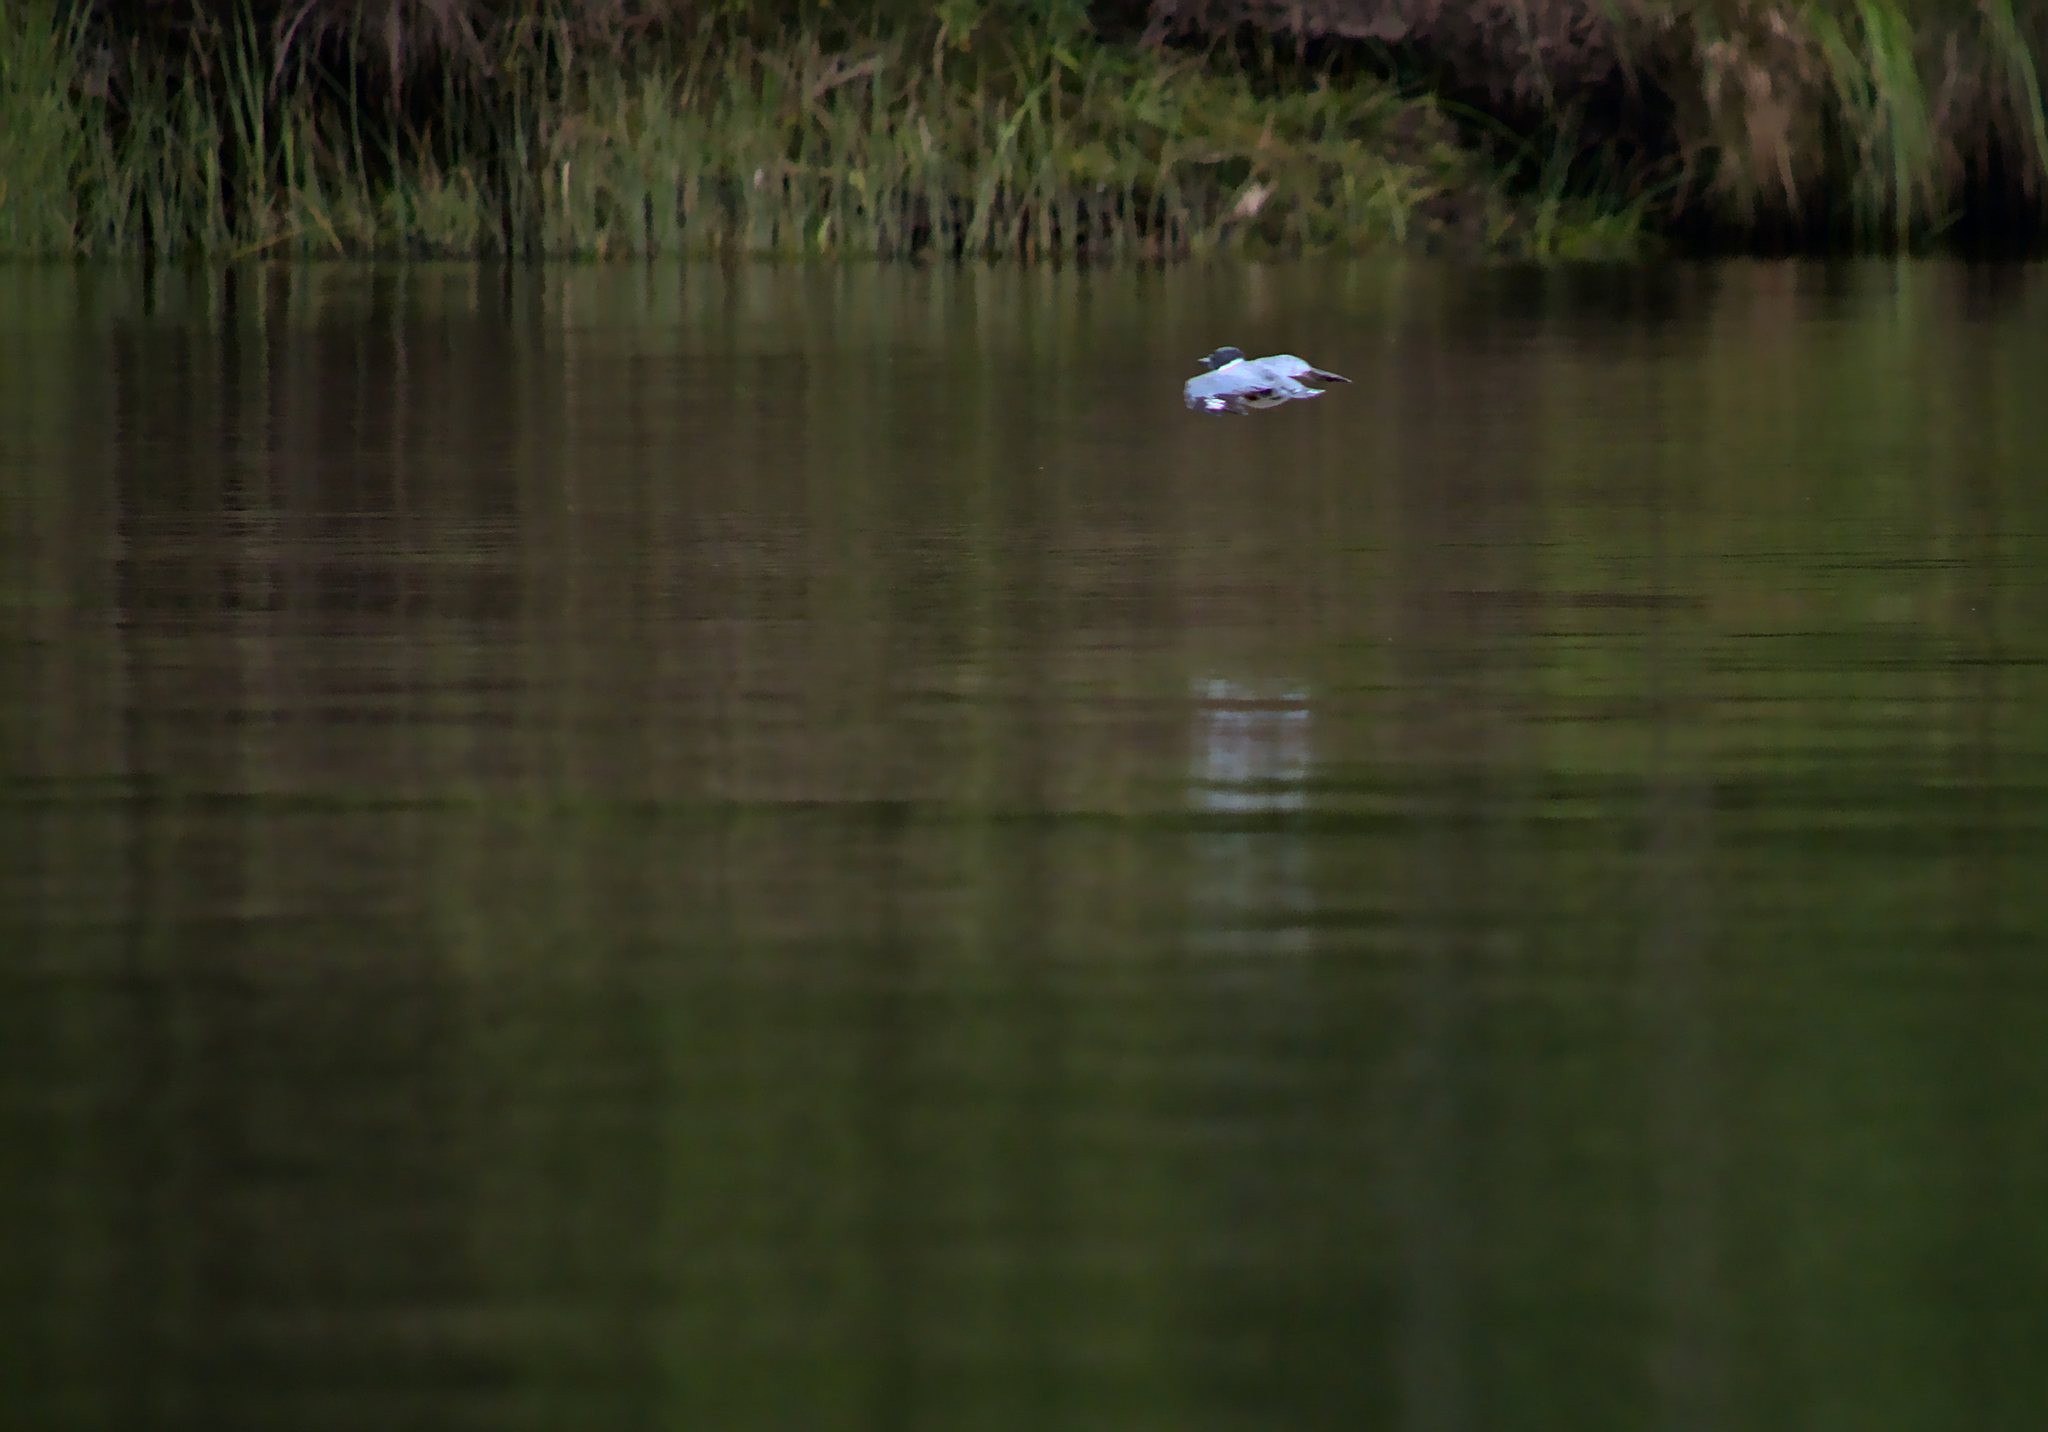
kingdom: Animalia
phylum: Chordata
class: Aves
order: Coraciiformes
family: Alcedinidae
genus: Megaceryle
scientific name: Megaceryle alcyon
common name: Belted kingfisher
